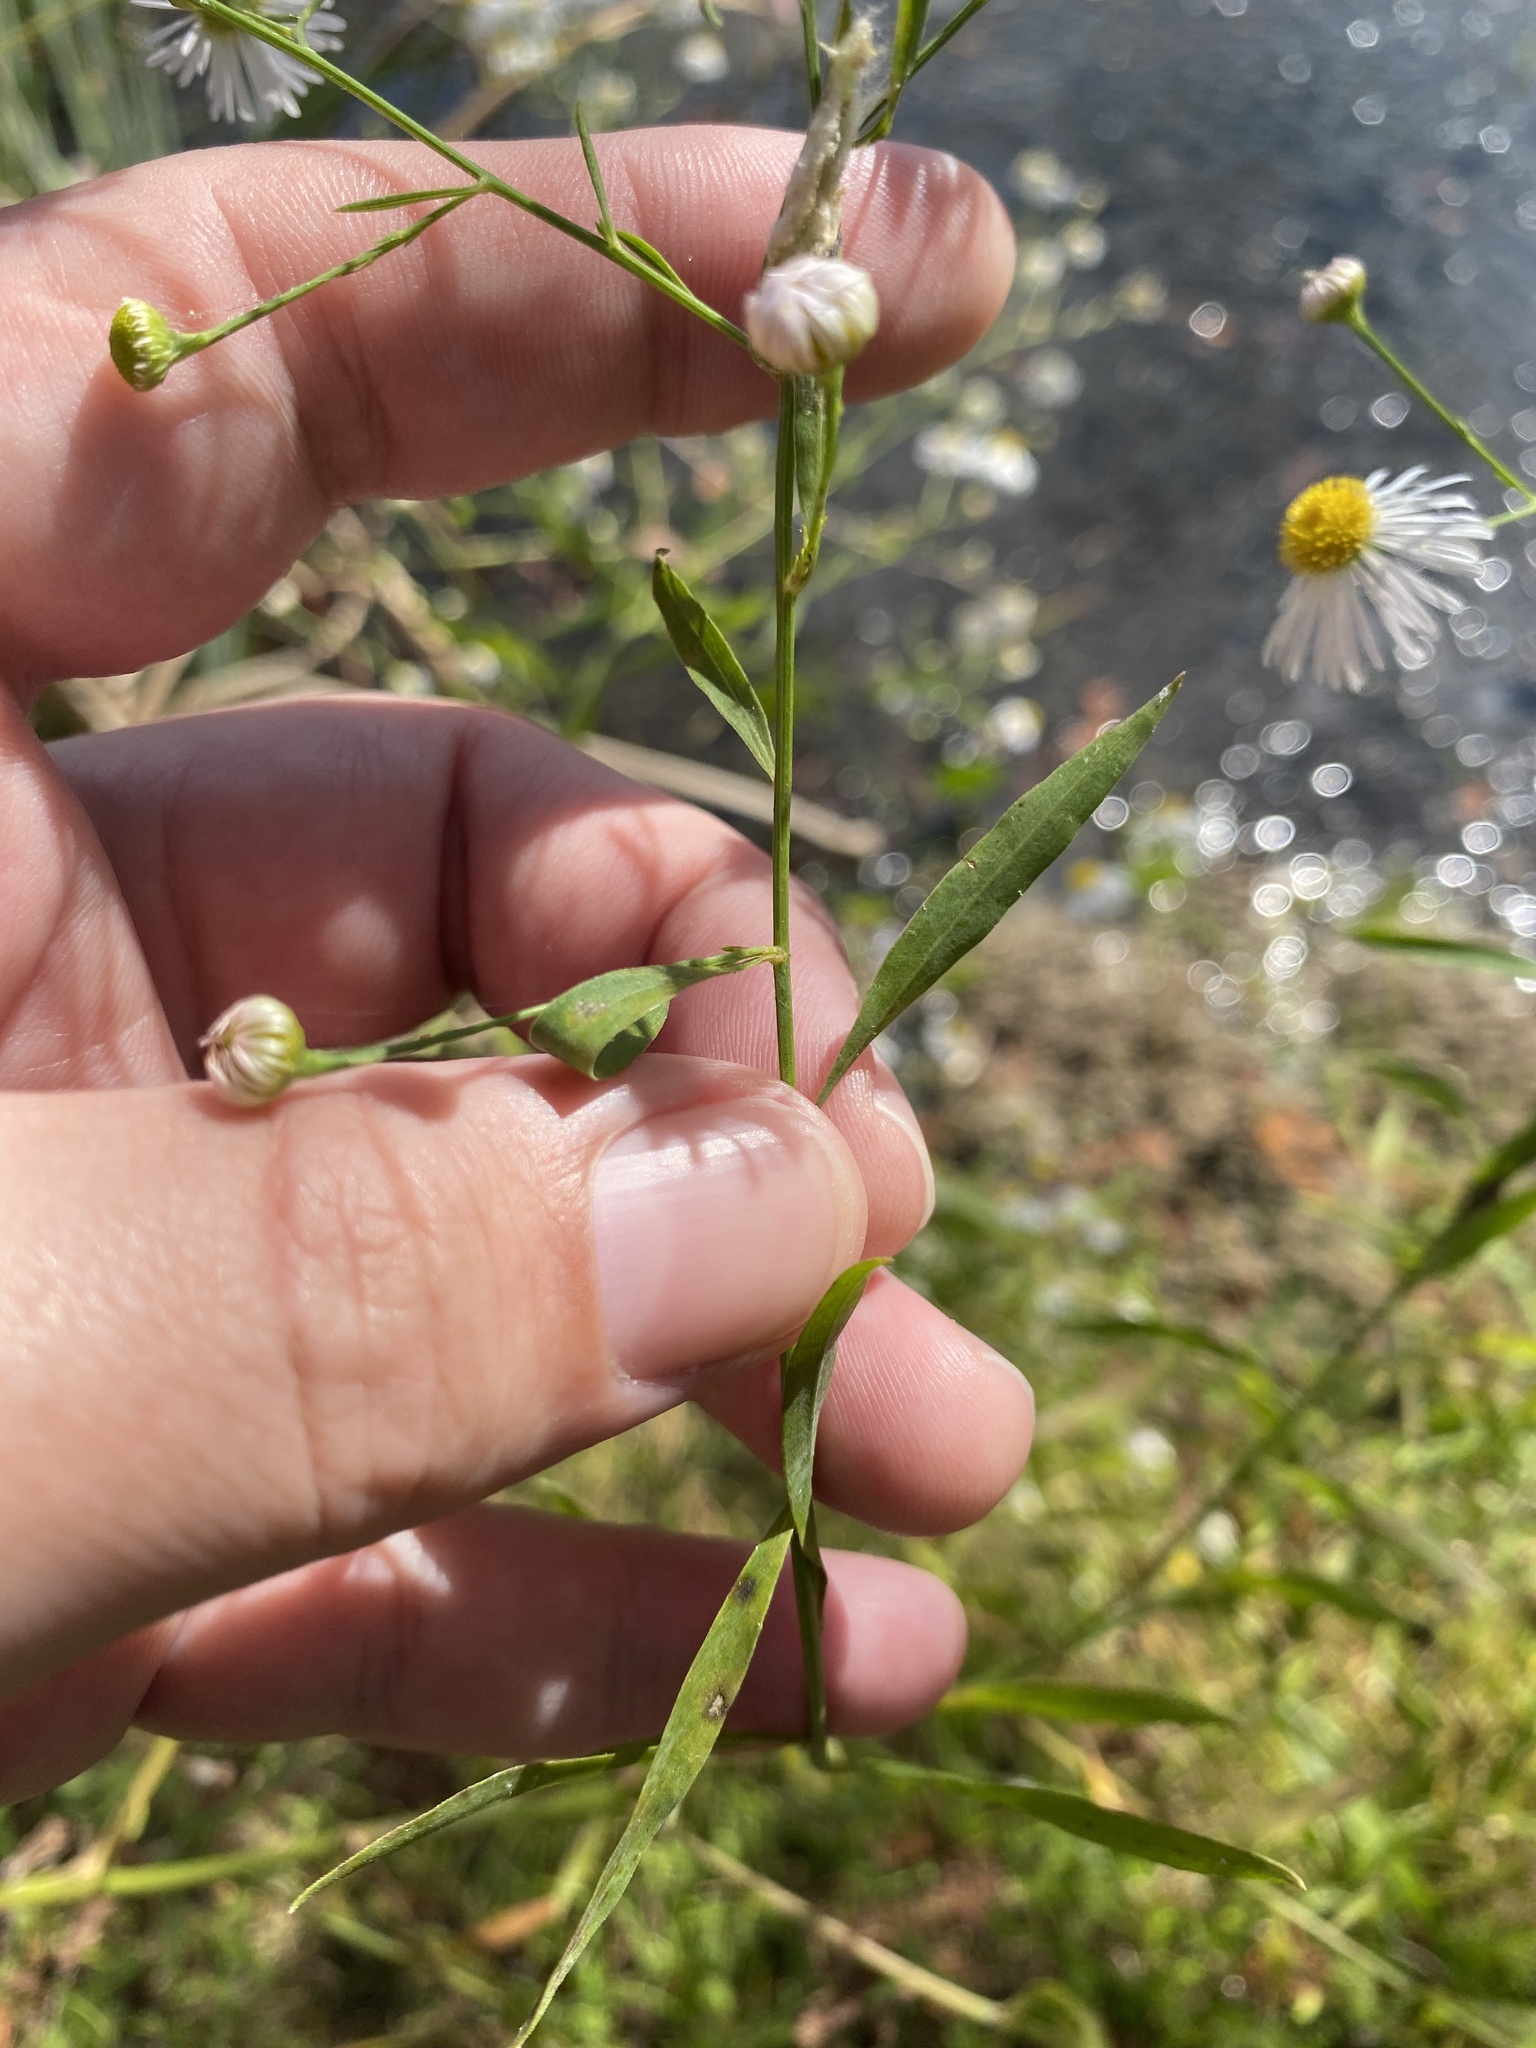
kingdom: Plantae
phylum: Tracheophyta
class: Magnoliopsida
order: Asterales
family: Asteraceae
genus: Erigeron
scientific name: Erigeron strigosus
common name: Common eastern fleabane
